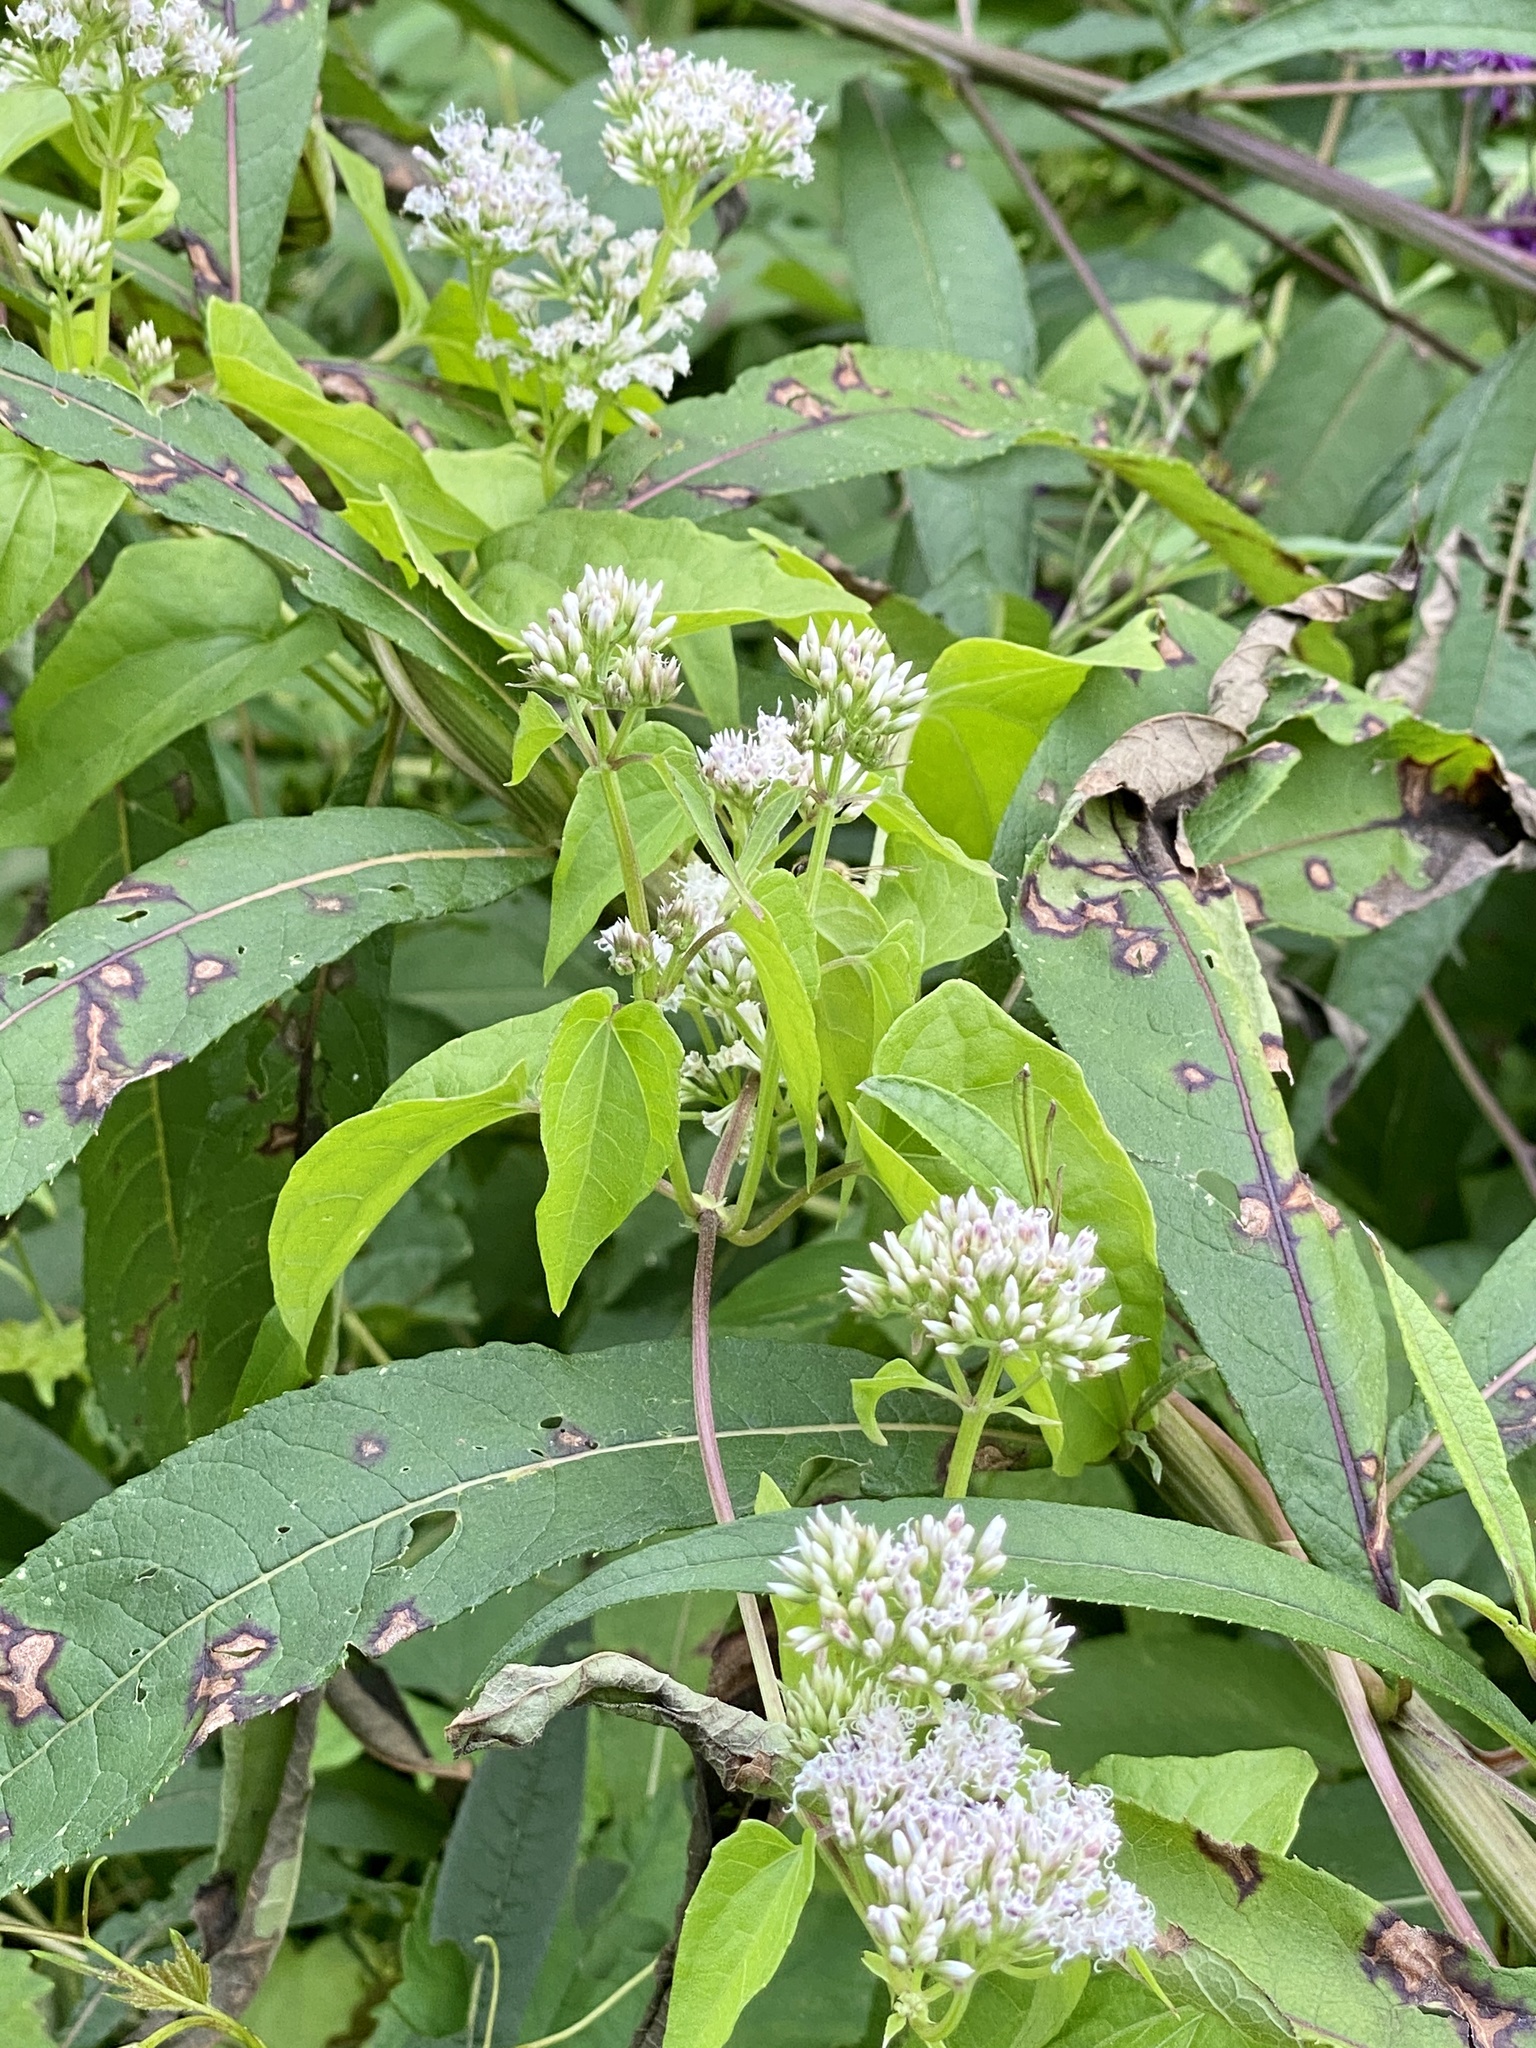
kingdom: Plantae
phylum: Tracheophyta
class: Magnoliopsida
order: Asterales
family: Asteraceae
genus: Mikania
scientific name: Mikania scandens
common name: Climbing hempvine
